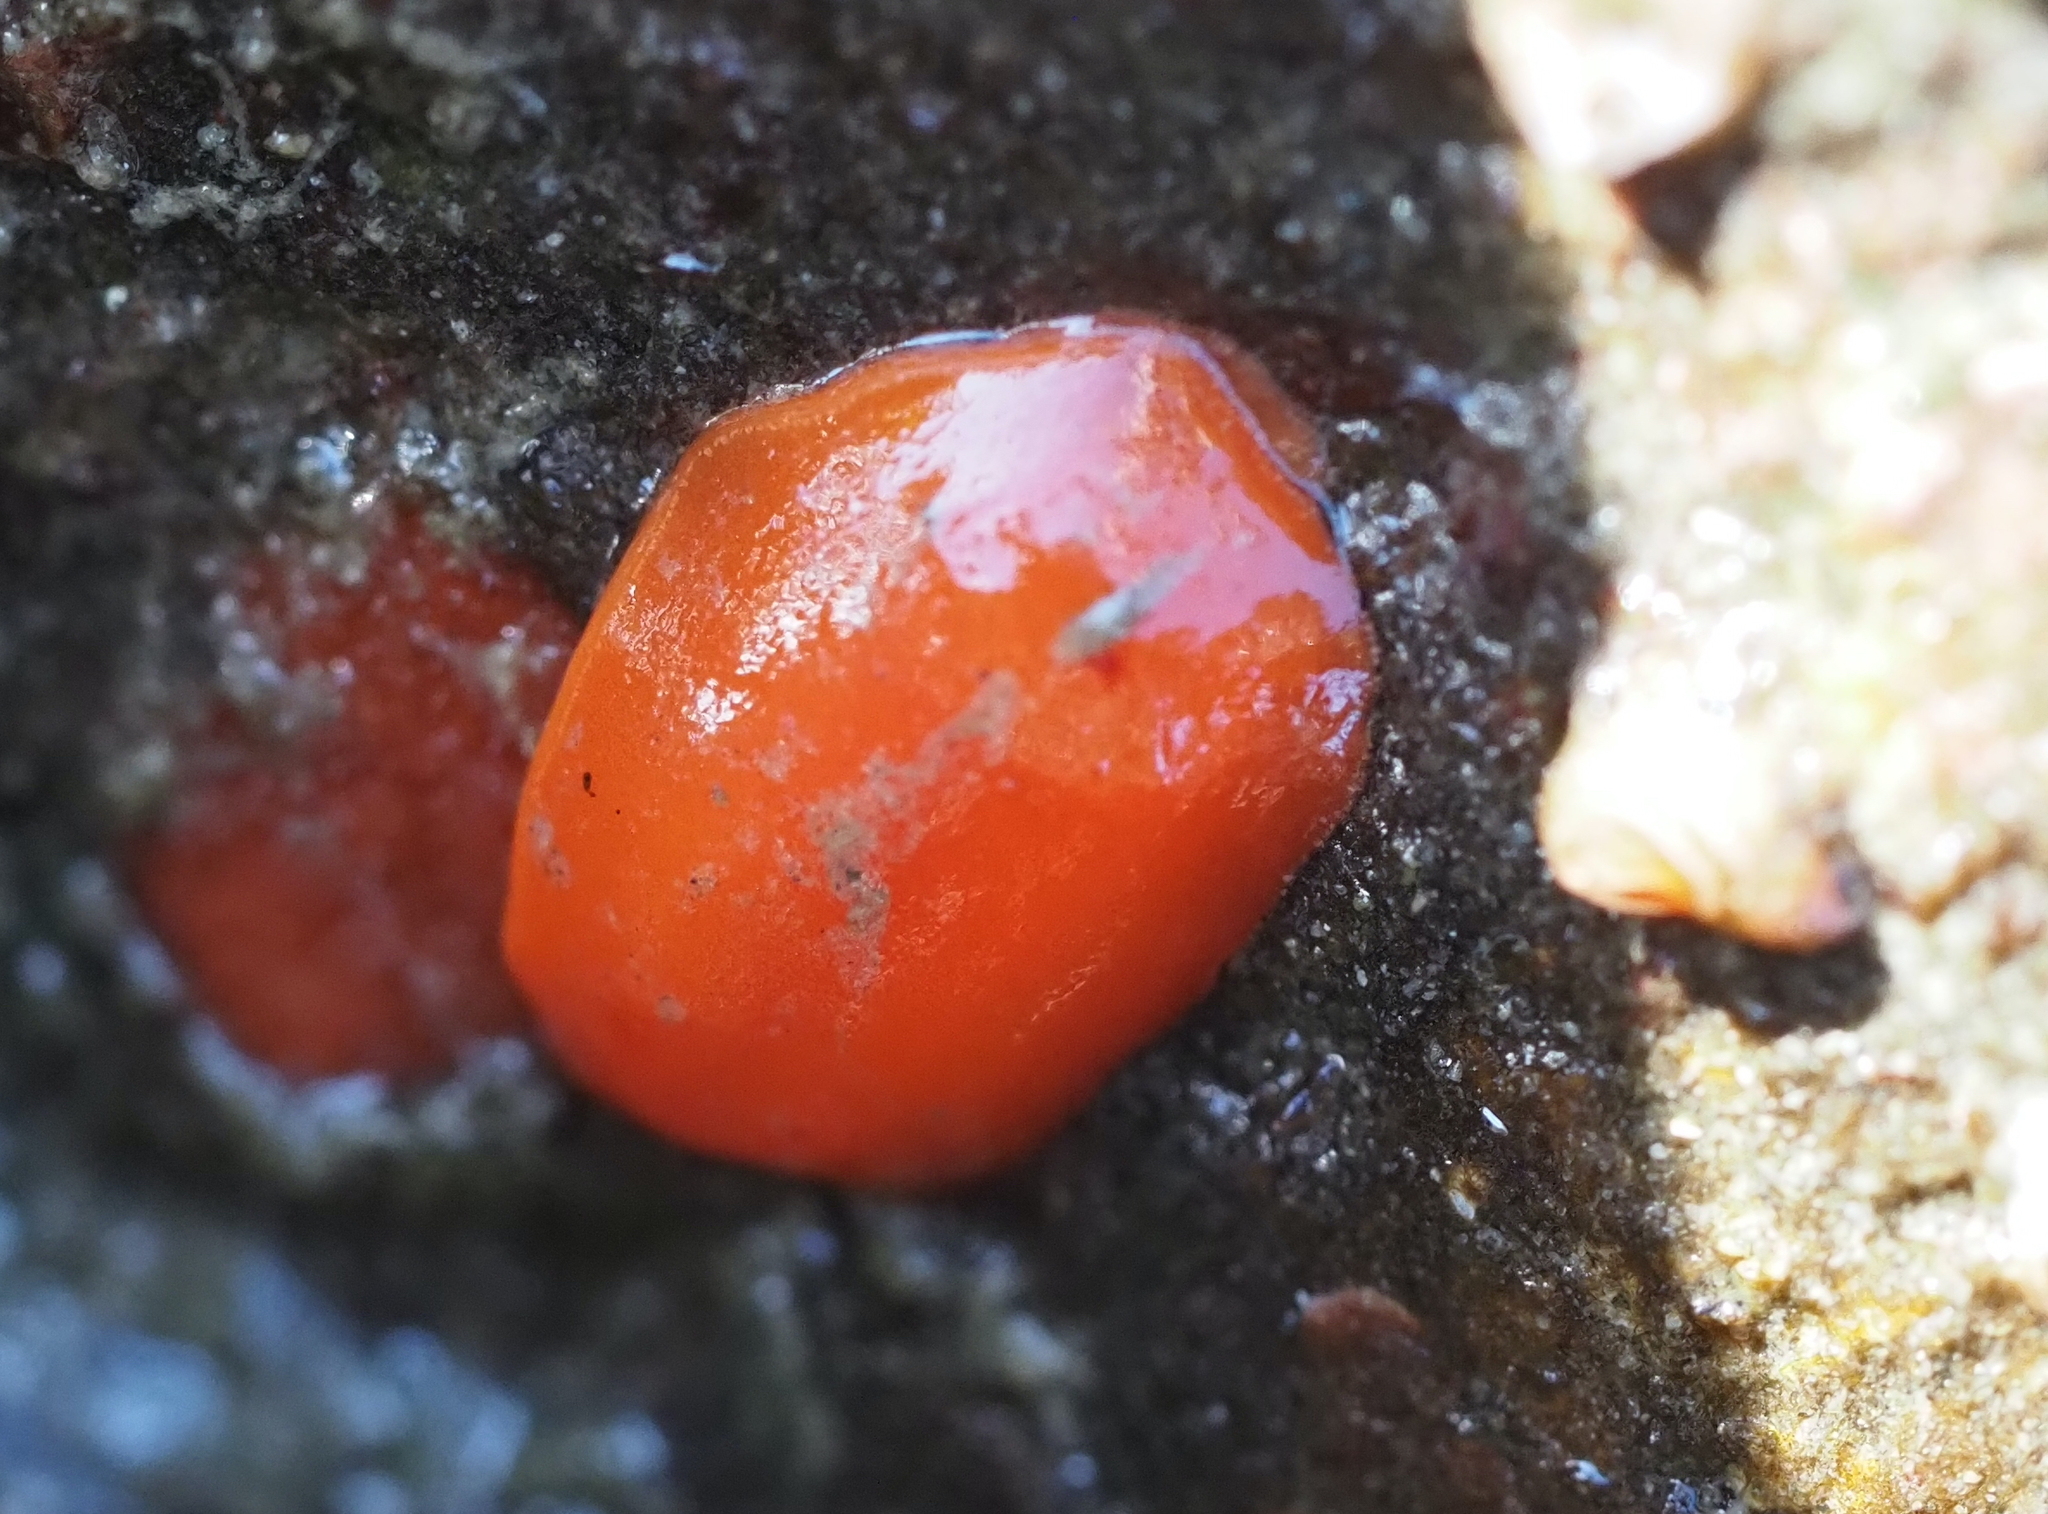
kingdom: Animalia
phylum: Mollusca
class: Gastropoda
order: Nudibranchia
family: Discodorididae
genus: Rostanga
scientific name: Rostanga pulchra
